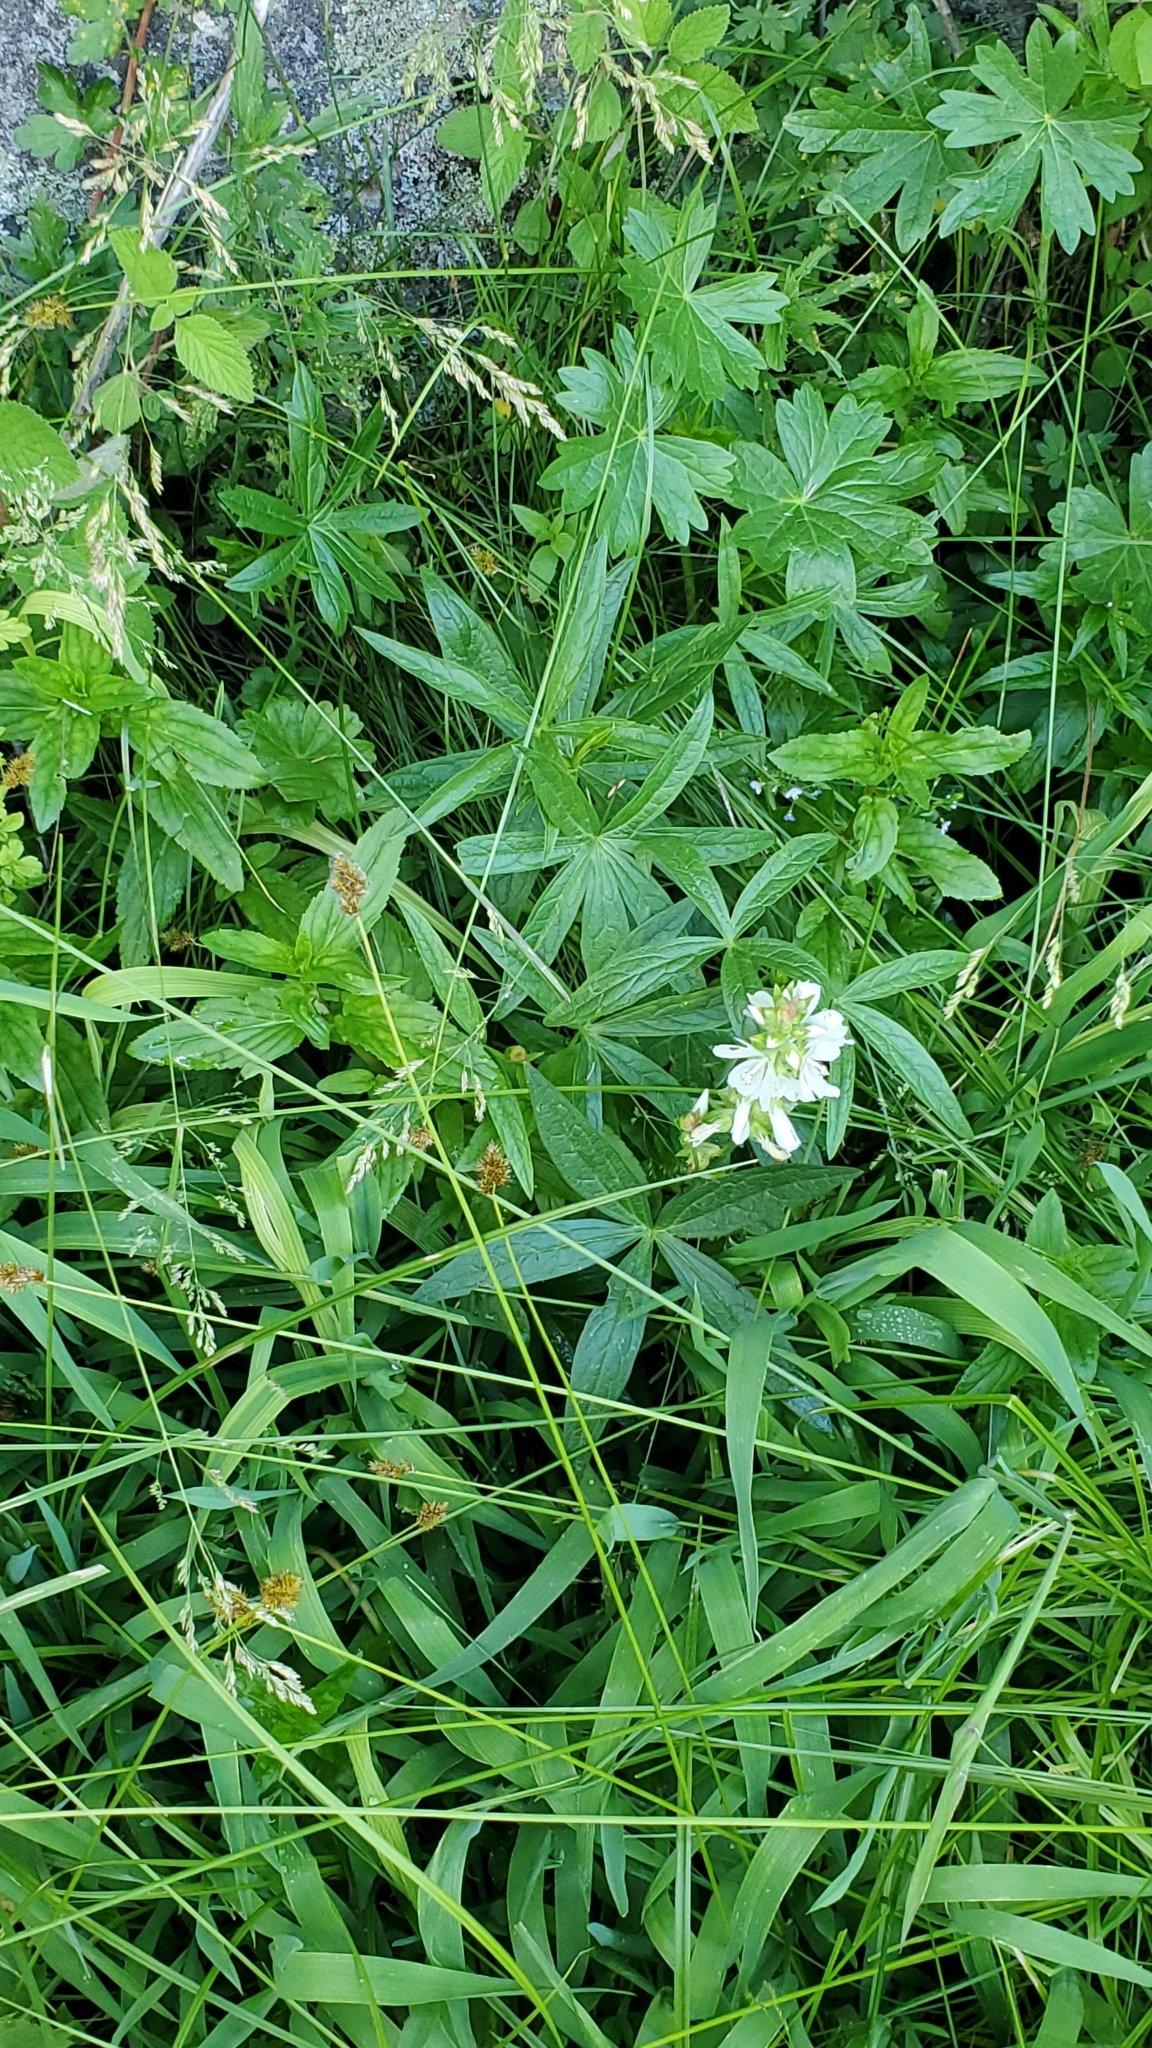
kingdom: Plantae
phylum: Tracheophyta
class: Magnoliopsida
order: Malvales
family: Malvaceae
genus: Sidalcea
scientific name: Sidalcea candida
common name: Prairie-mallow
